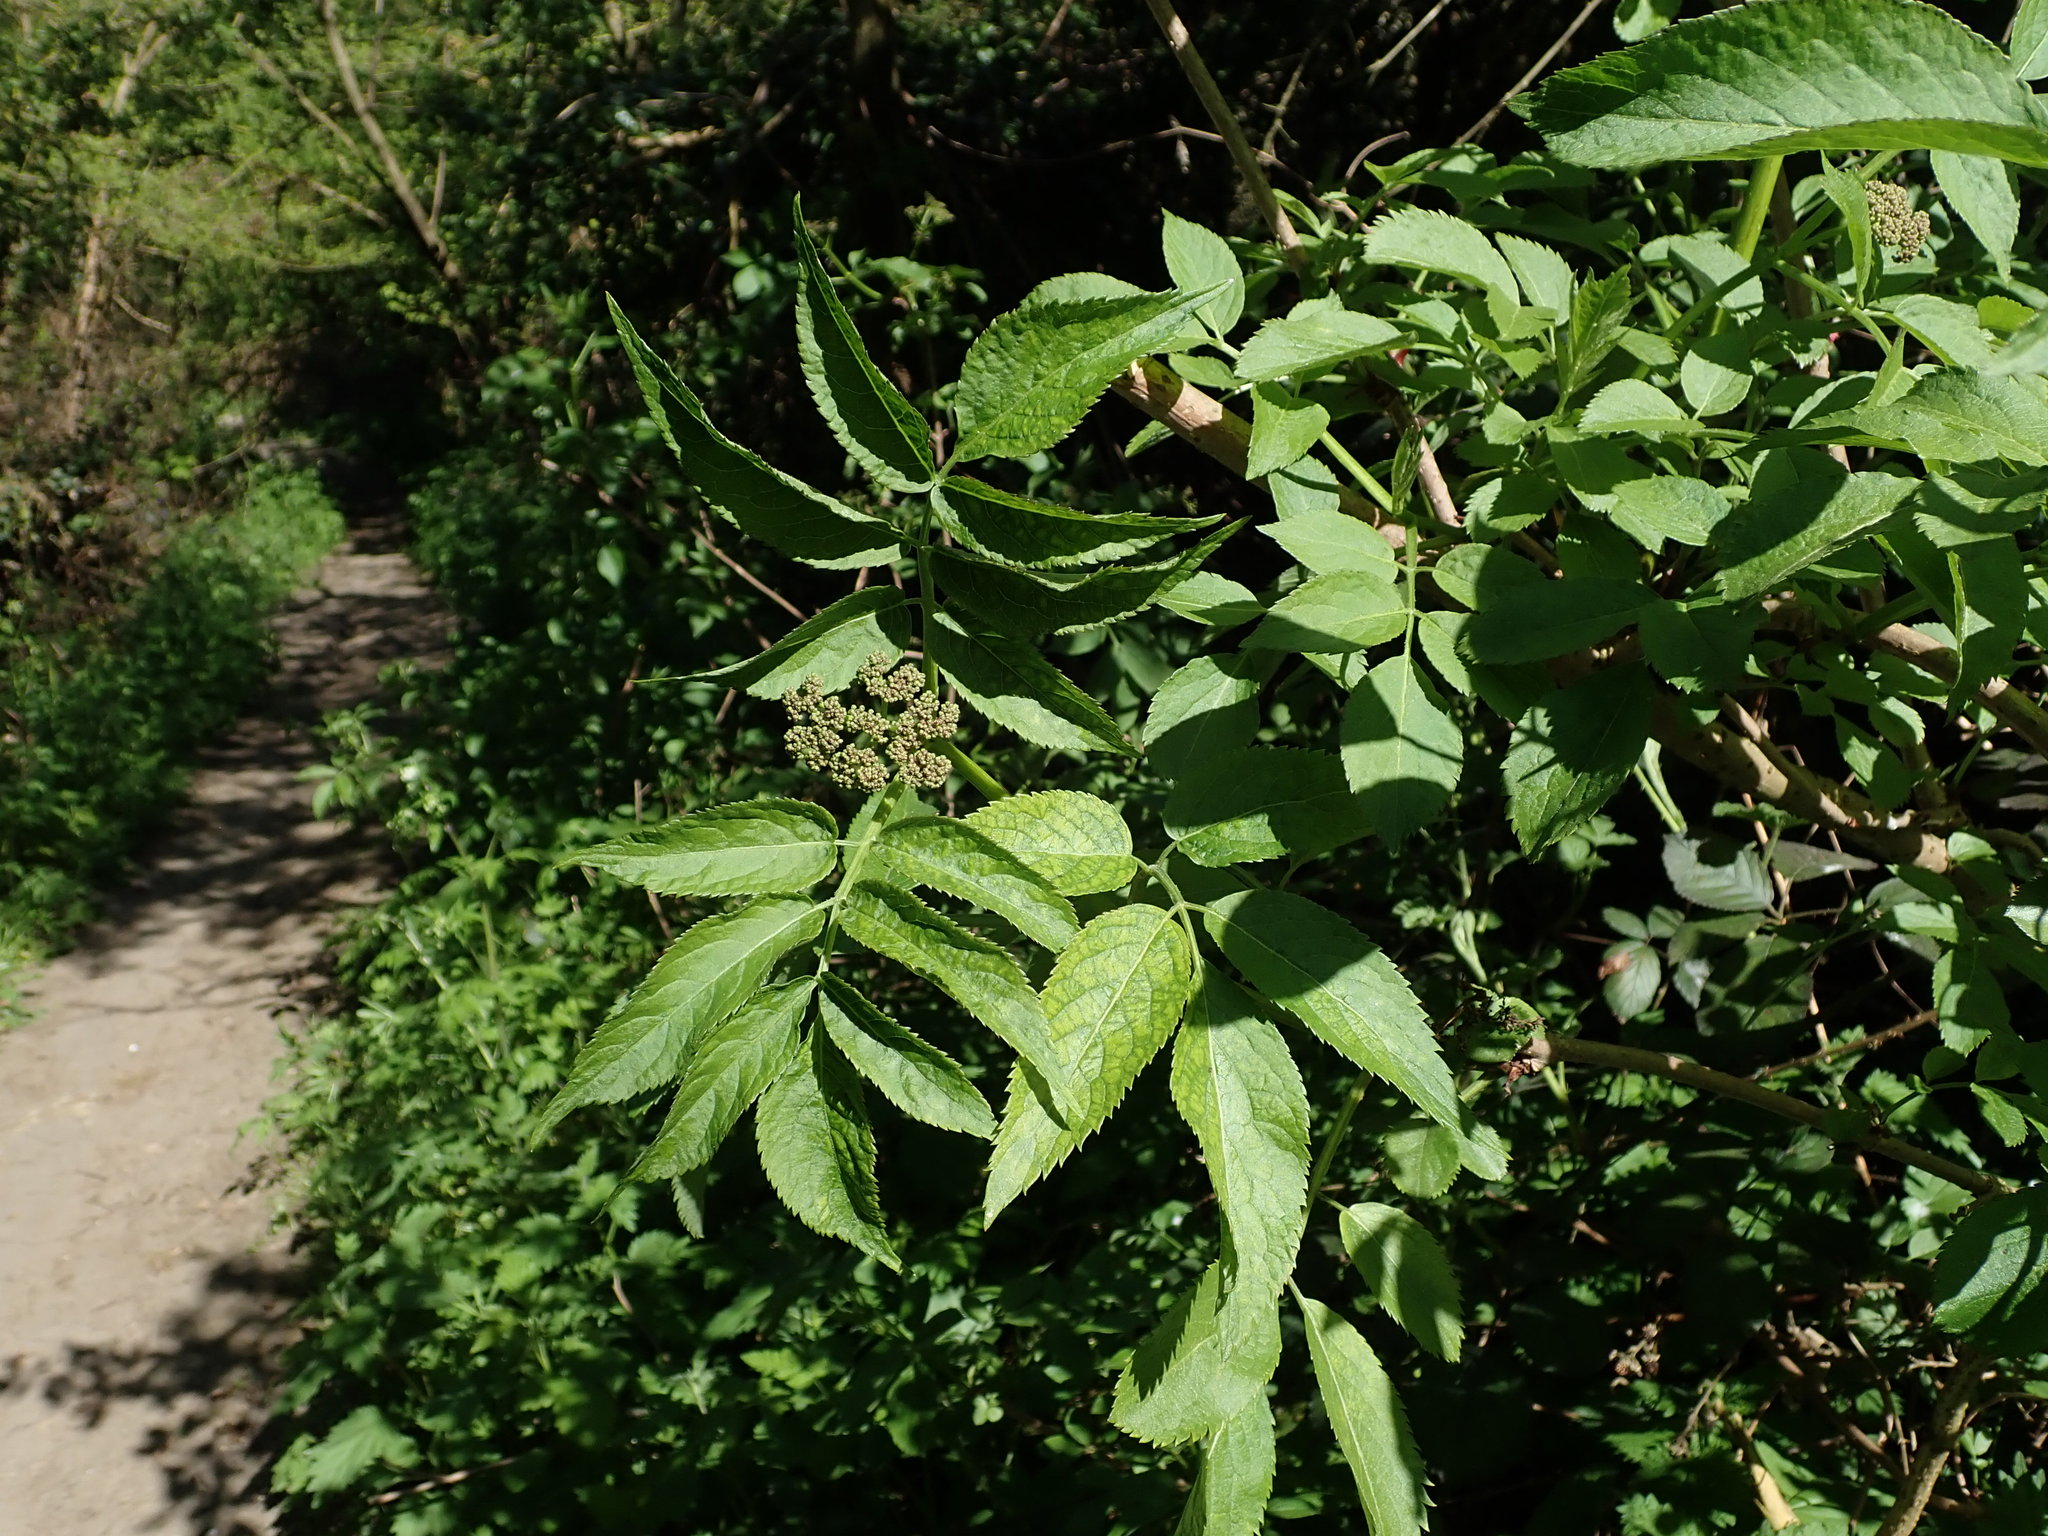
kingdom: Plantae
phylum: Tracheophyta
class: Magnoliopsida
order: Dipsacales
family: Viburnaceae
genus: Sambucus
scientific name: Sambucus nigra
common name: Elder
